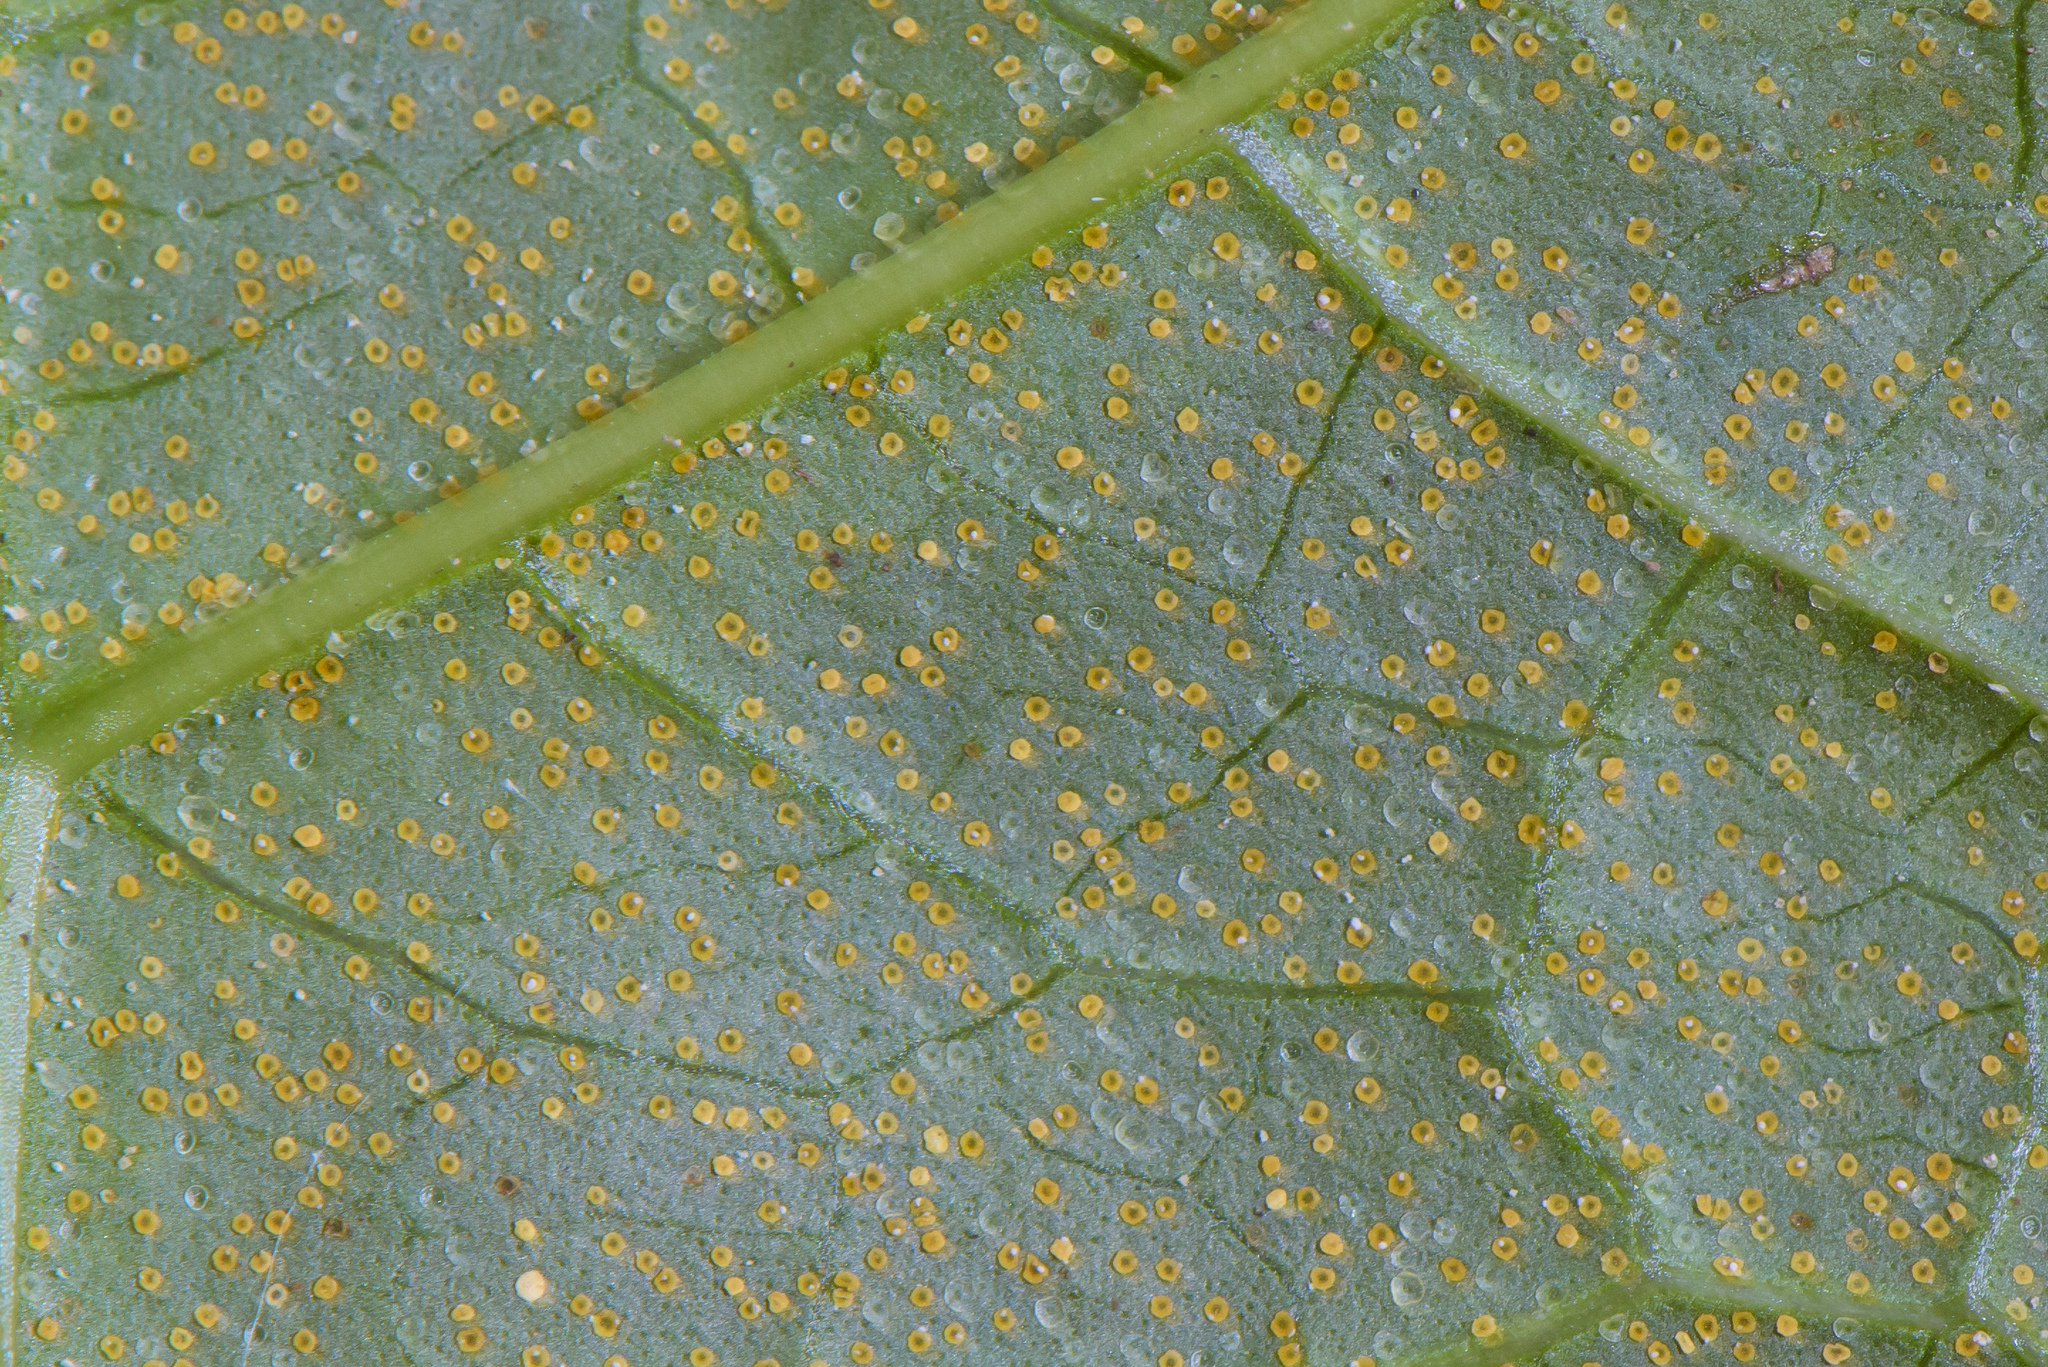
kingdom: Plantae
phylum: Tracheophyta
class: Magnoliopsida
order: Lamiales
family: Lamiaceae
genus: Clerodendrum
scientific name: Clerodendrum japonicum
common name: Japanese glorybower
